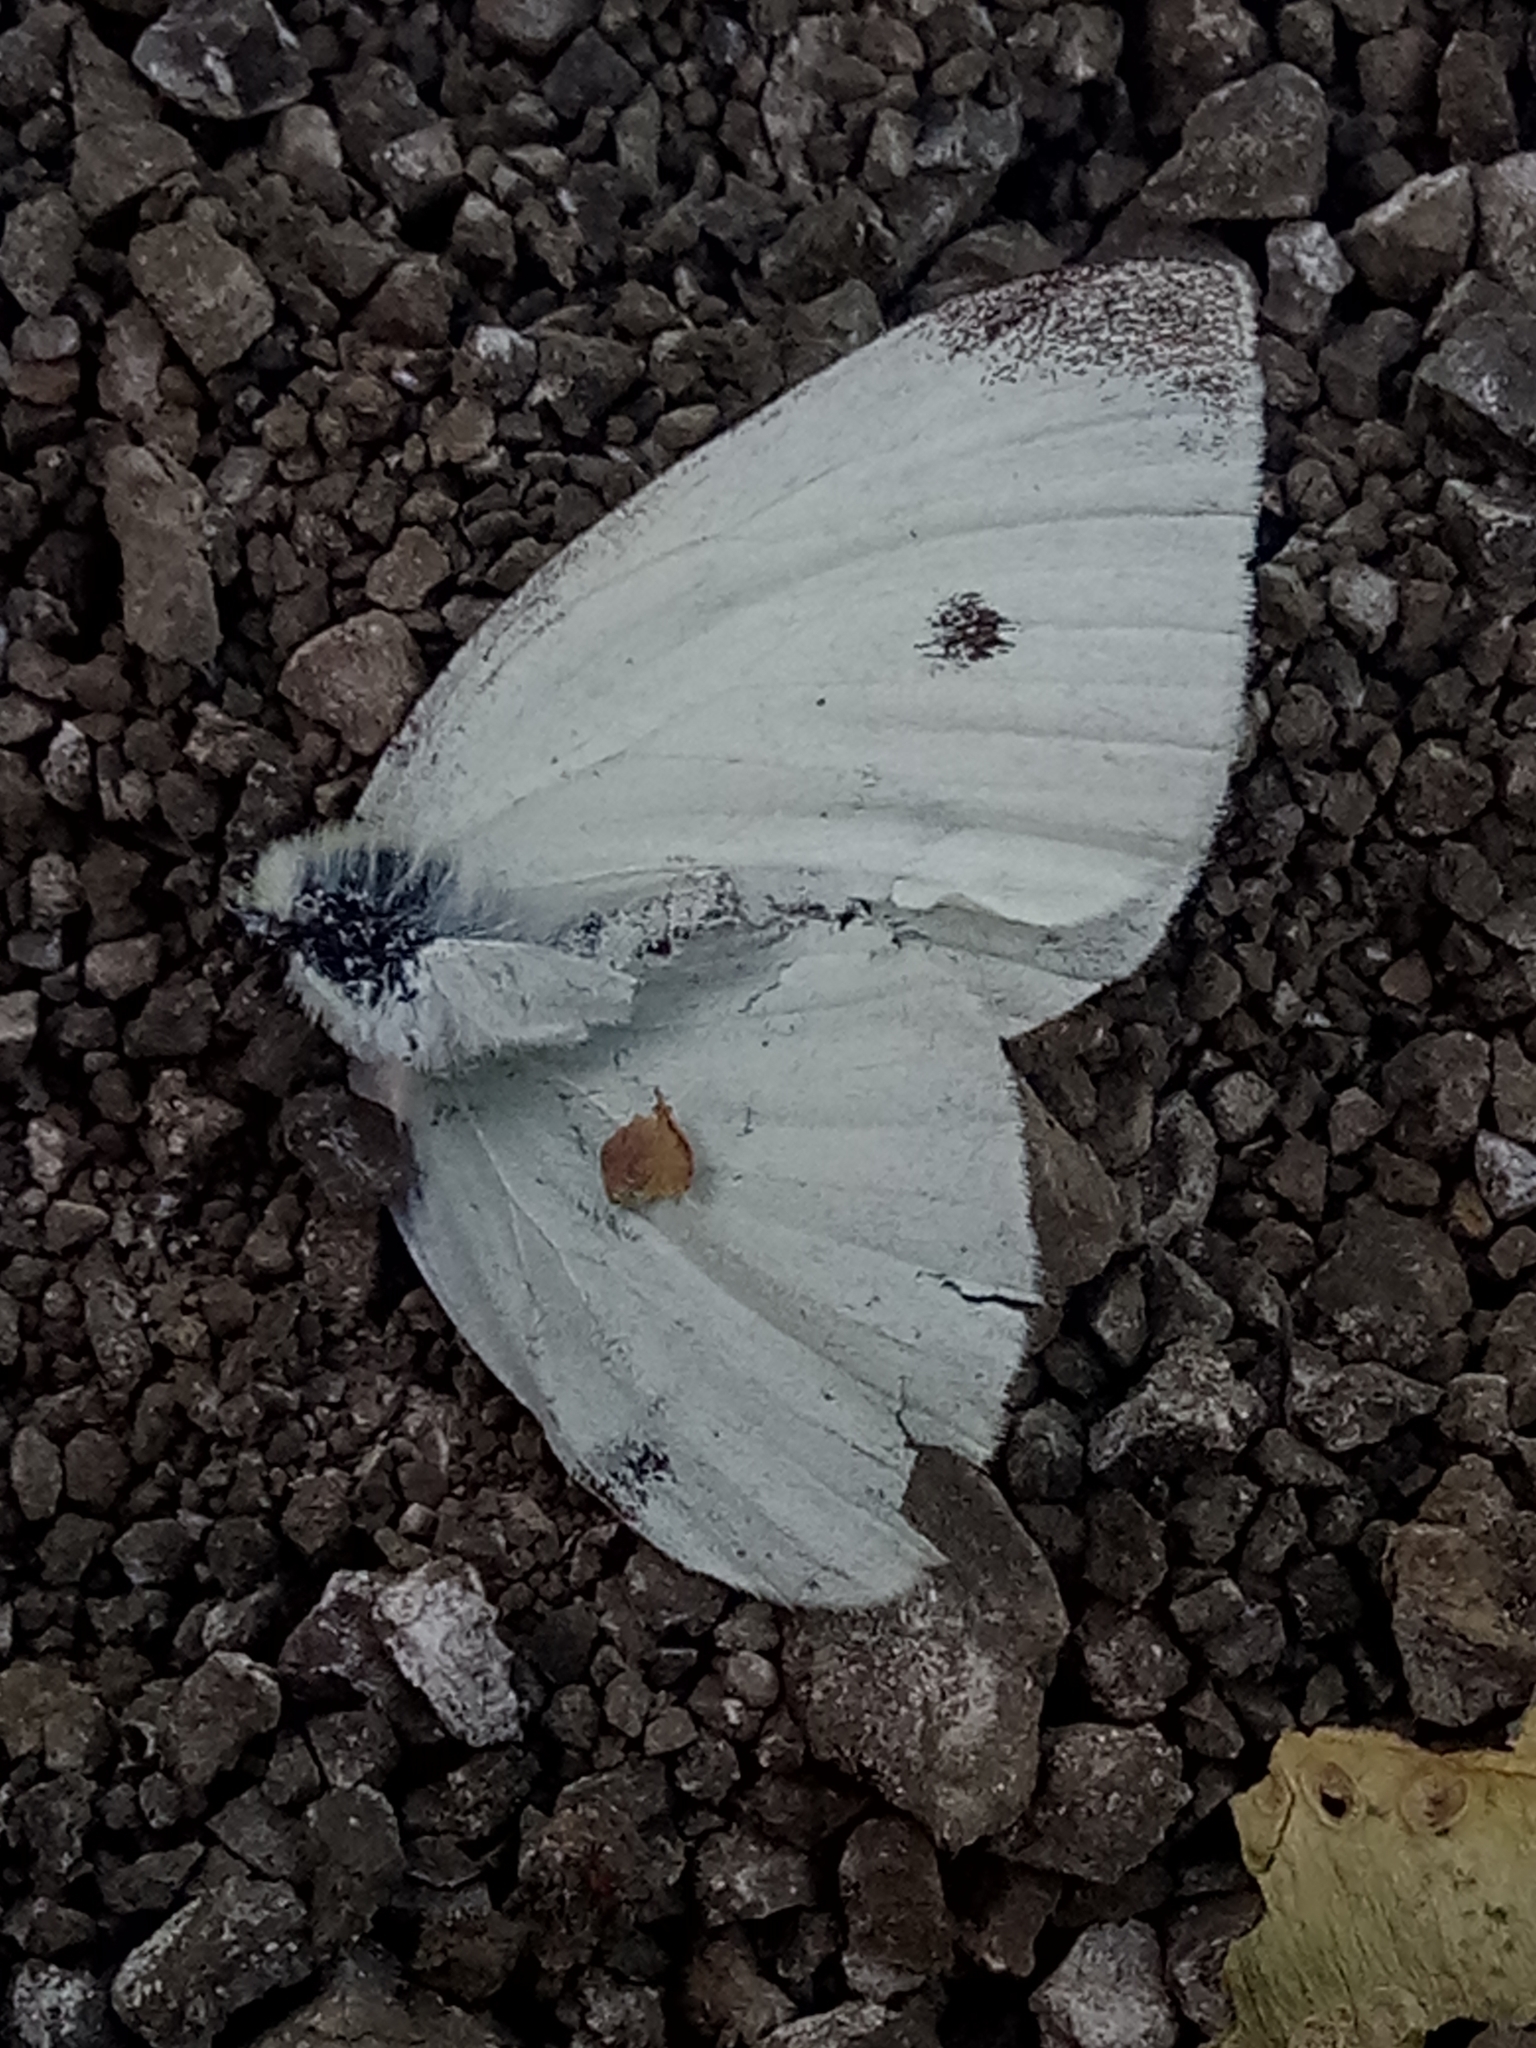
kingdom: Animalia
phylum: Arthropoda
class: Insecta
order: Lepidoptera
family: Pieridae
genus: Pieris
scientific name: Pieris rapae
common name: Small white
